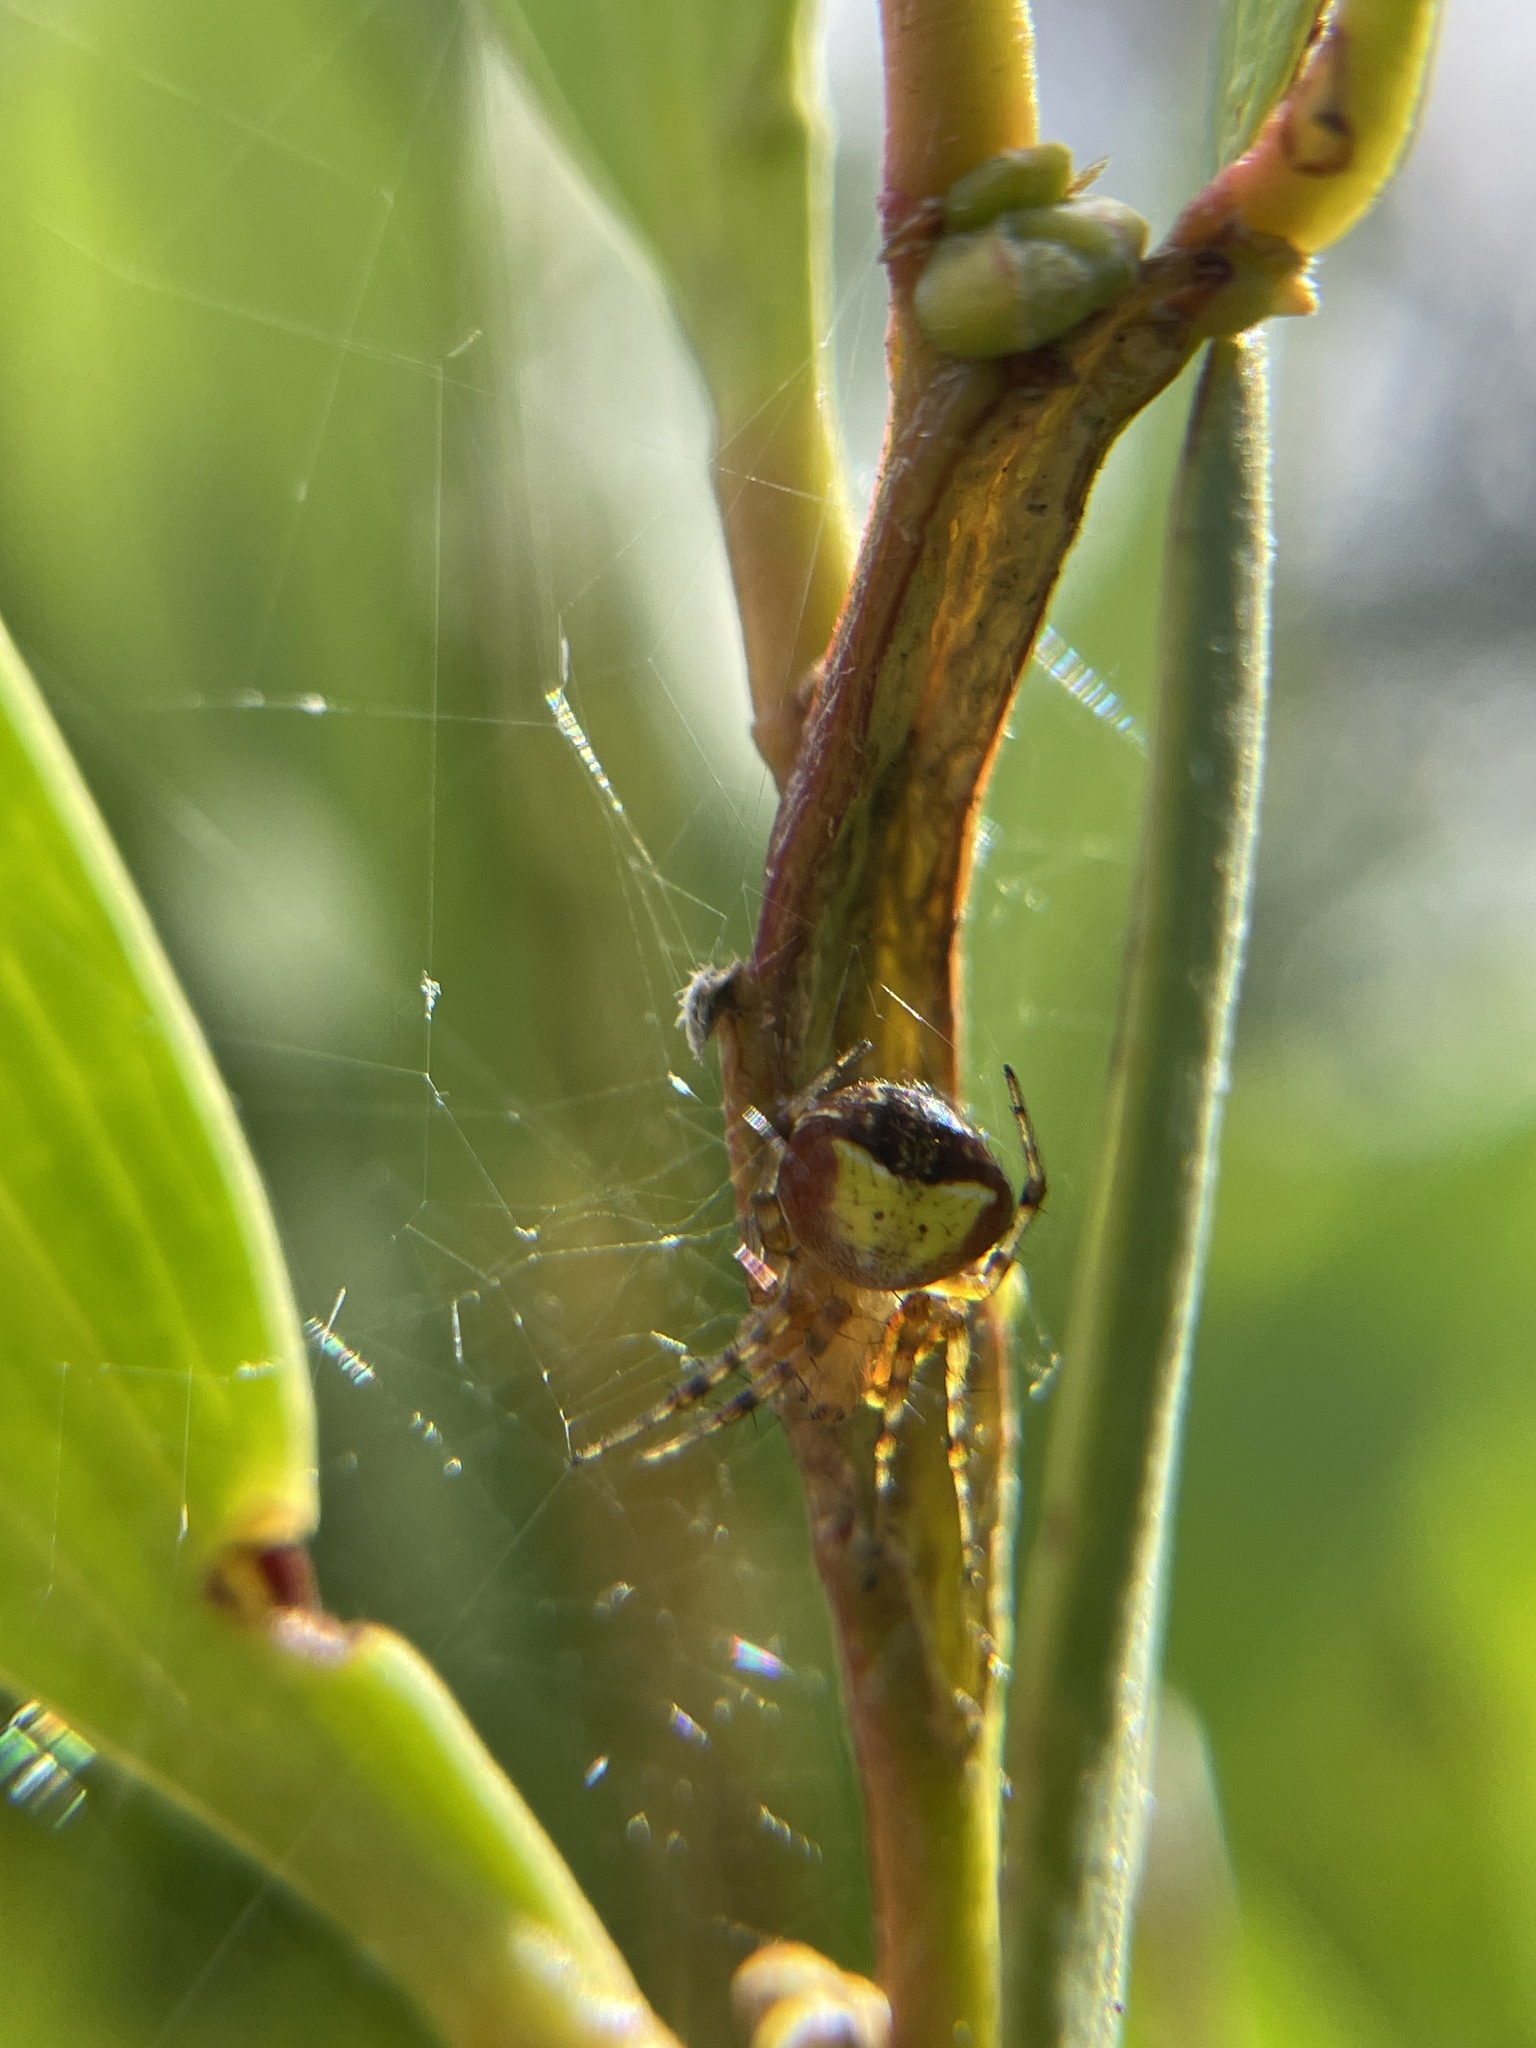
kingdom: Animalia
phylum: Arthropoda
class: Arachnida
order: Araneae
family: Araneidae
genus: Araneus
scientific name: Araneus albotriangulus
